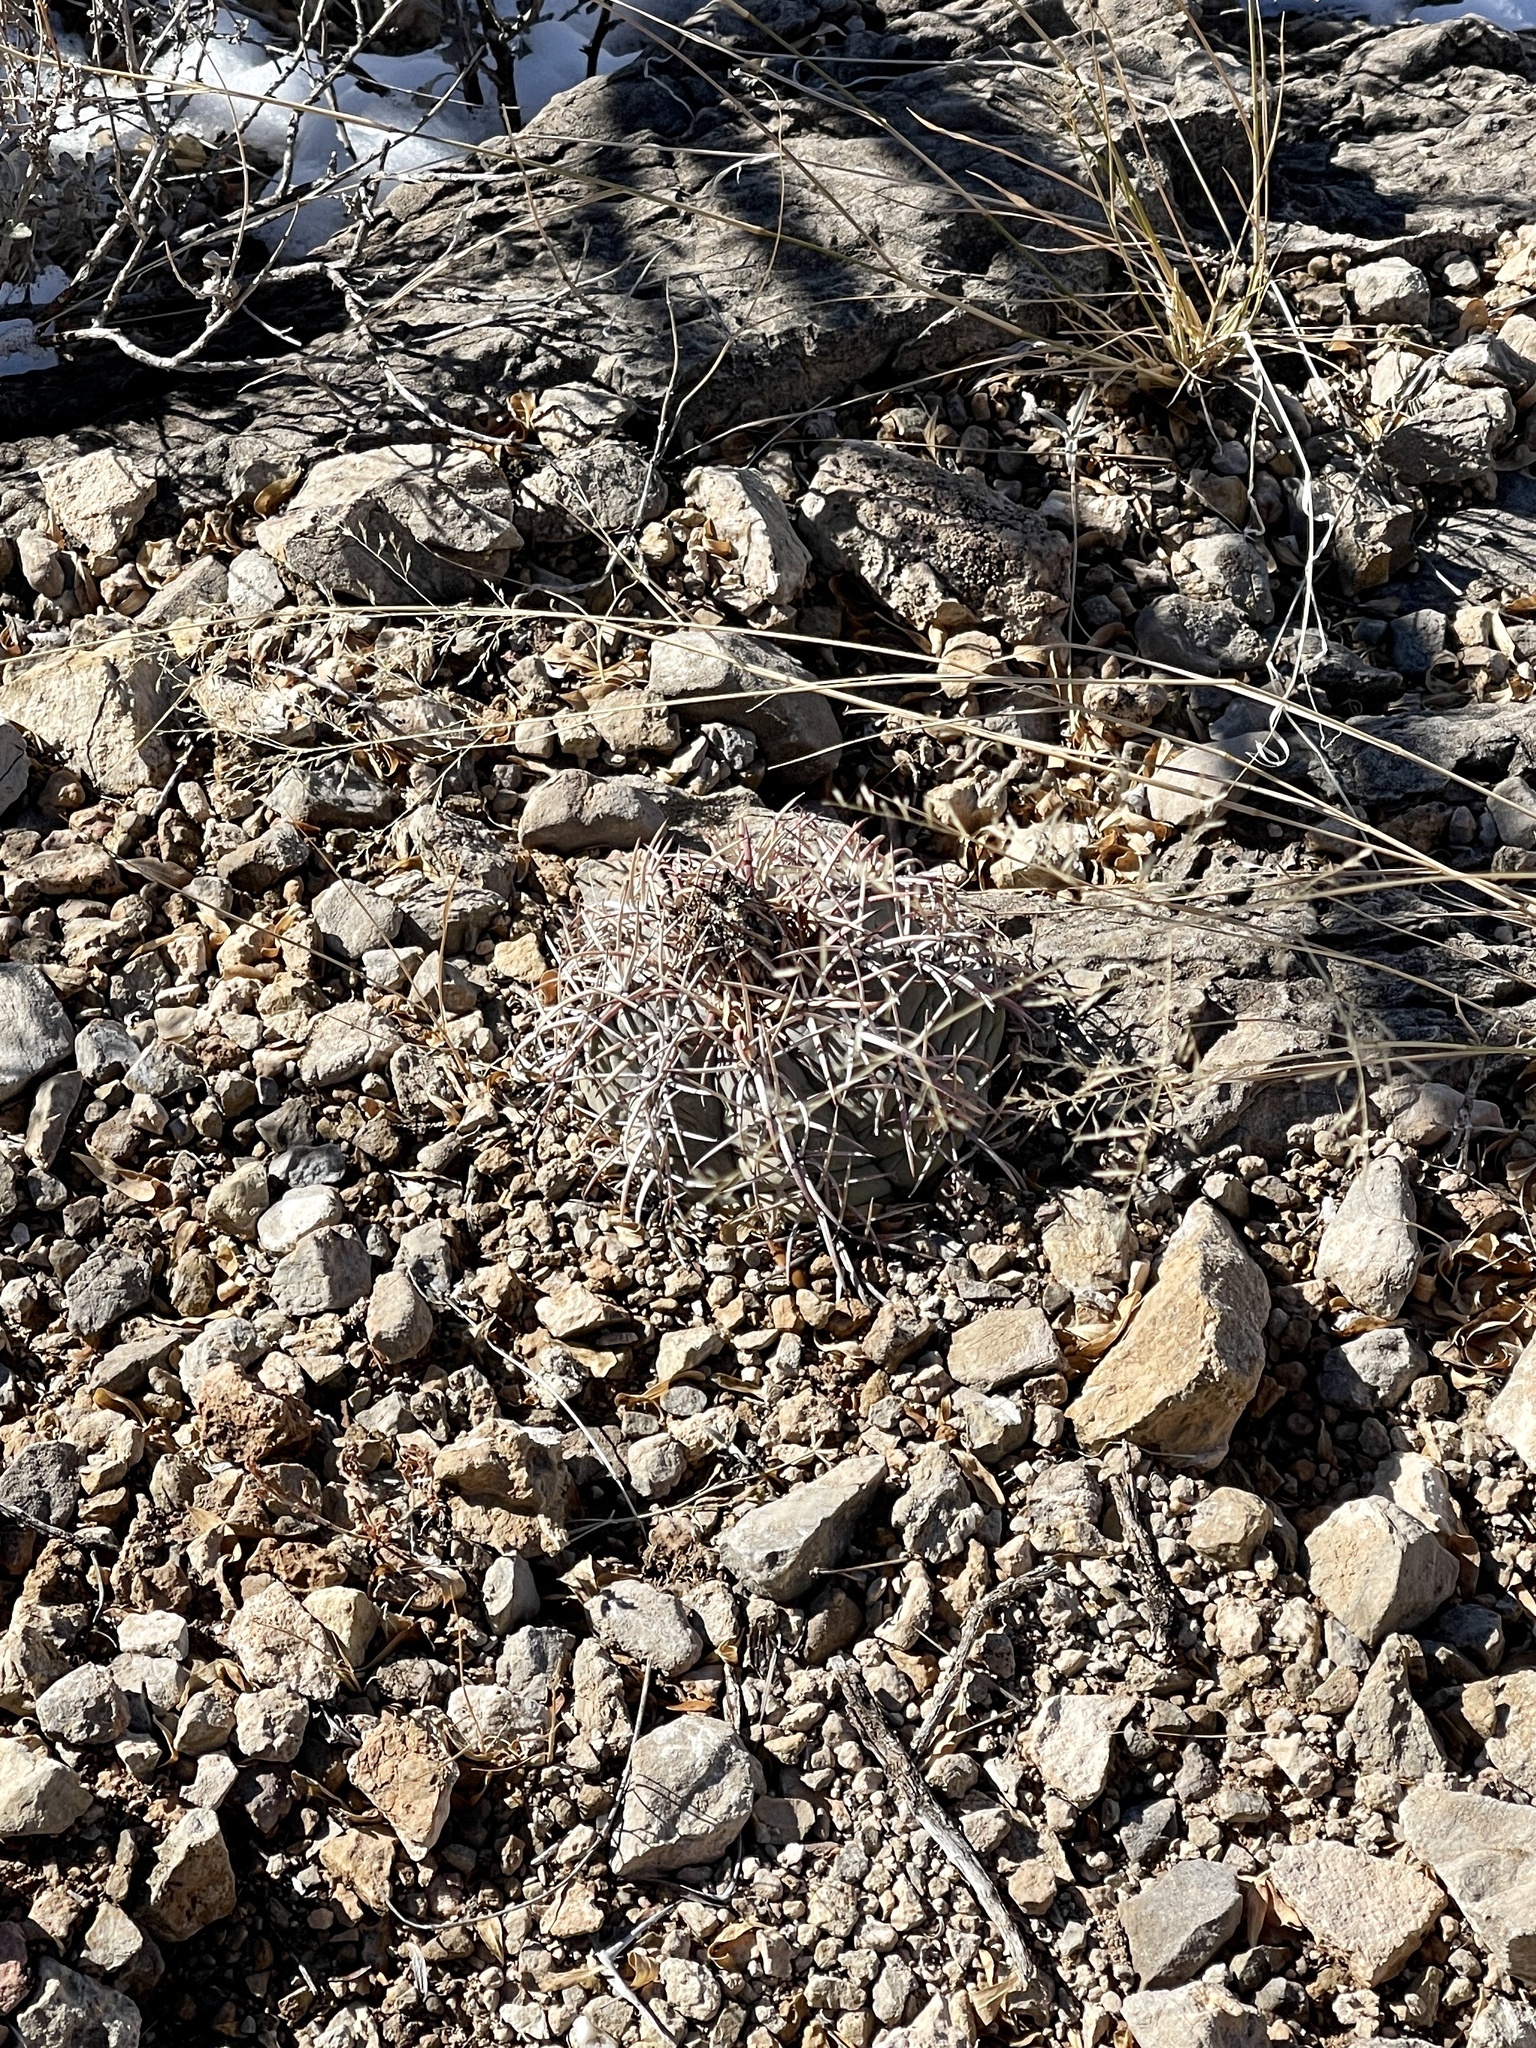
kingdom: Plantae
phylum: Tracheophyta
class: Magnoliopsida
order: Caryophyllales
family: Cactaceae
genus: Echinocactus
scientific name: Echinocactus horizonthalonius
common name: Devilshead
